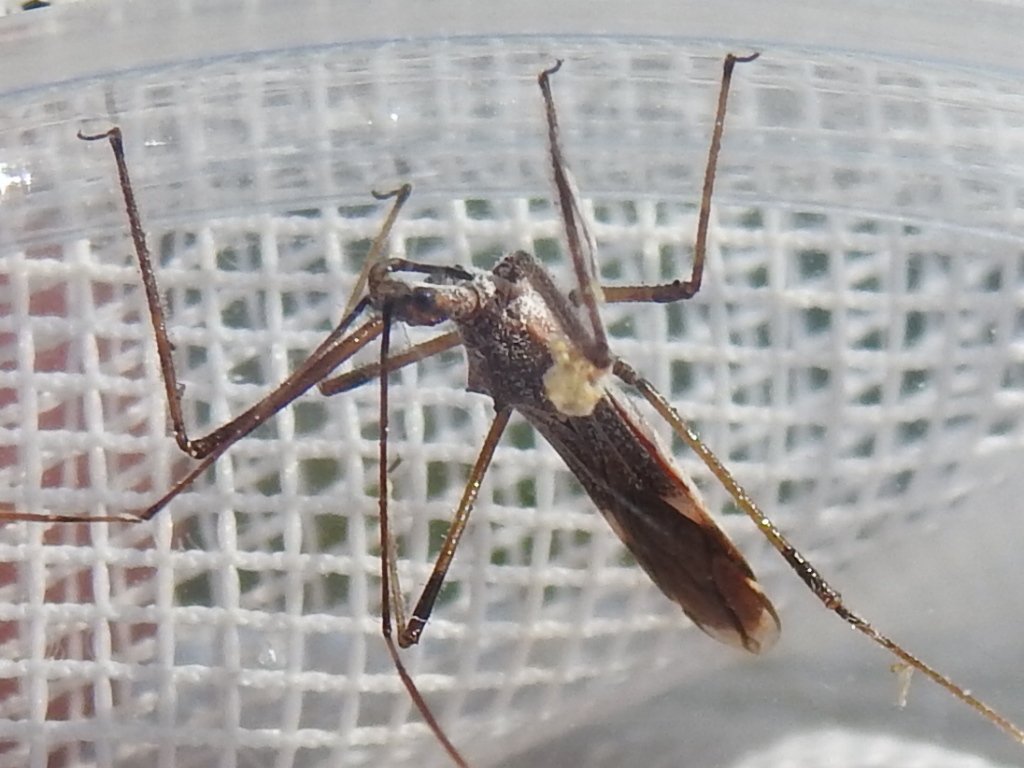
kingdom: Animalia
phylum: Arthropoda
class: Insecta
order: Hemiptera
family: Reduviidae
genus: Zelus
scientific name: Zelus tetracanthus
